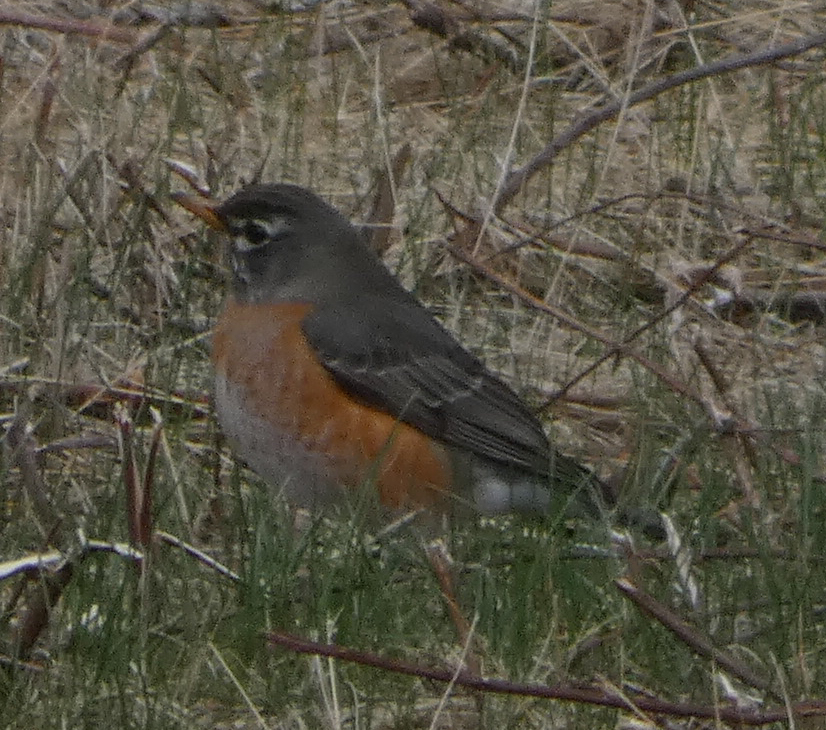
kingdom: Animalia
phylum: Chordata
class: Aves
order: Passeriformes
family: Turdidae
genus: Turdus
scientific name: Turdus migratorius
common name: American robin
